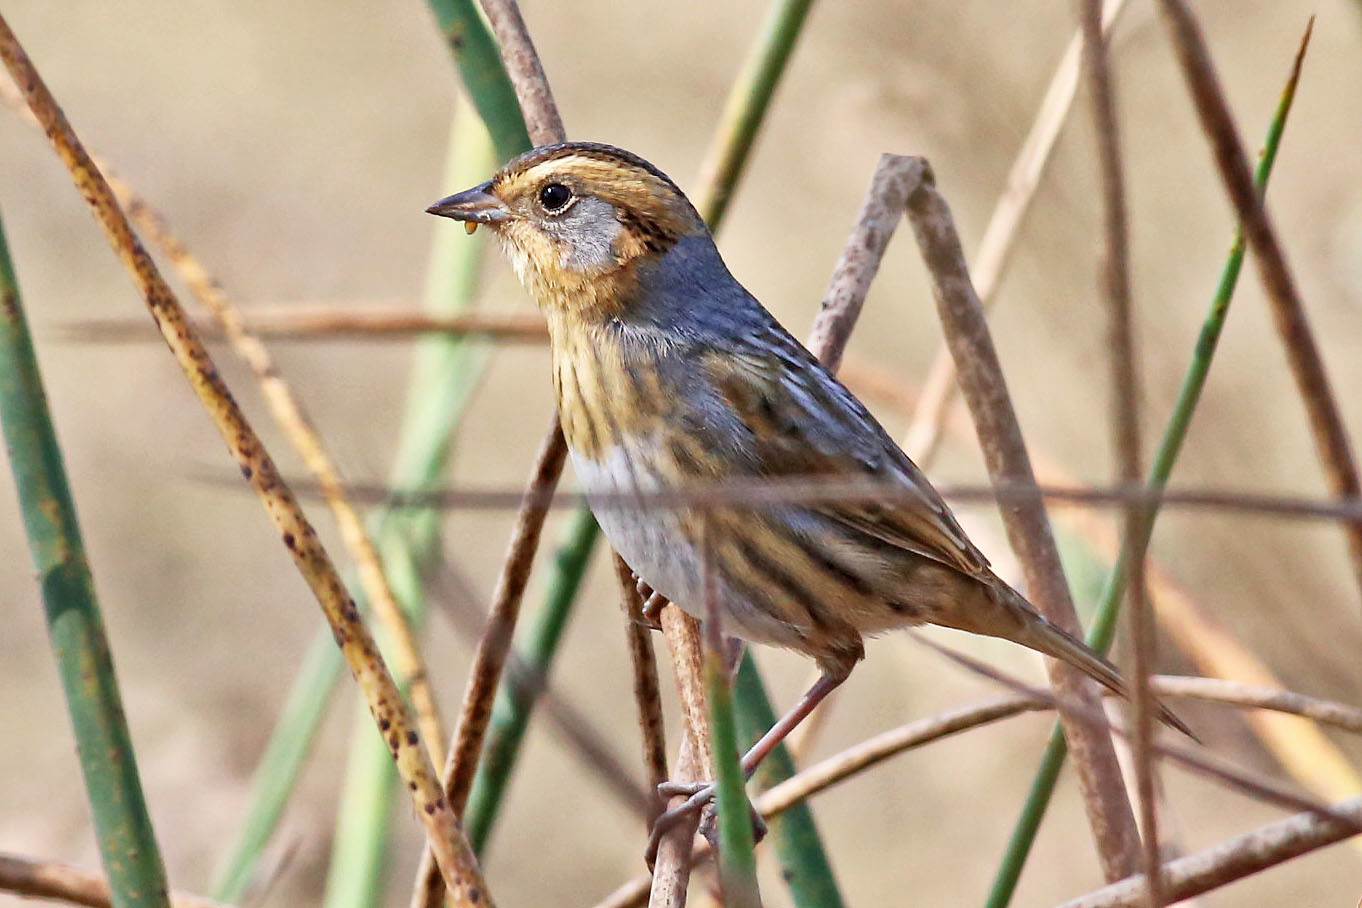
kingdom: Animalia
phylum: Chordata
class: Aves
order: Passeriformes
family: Passerellidae
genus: Ammospiza
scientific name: Ammospiza nelsoni
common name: Nelson's sparrow
